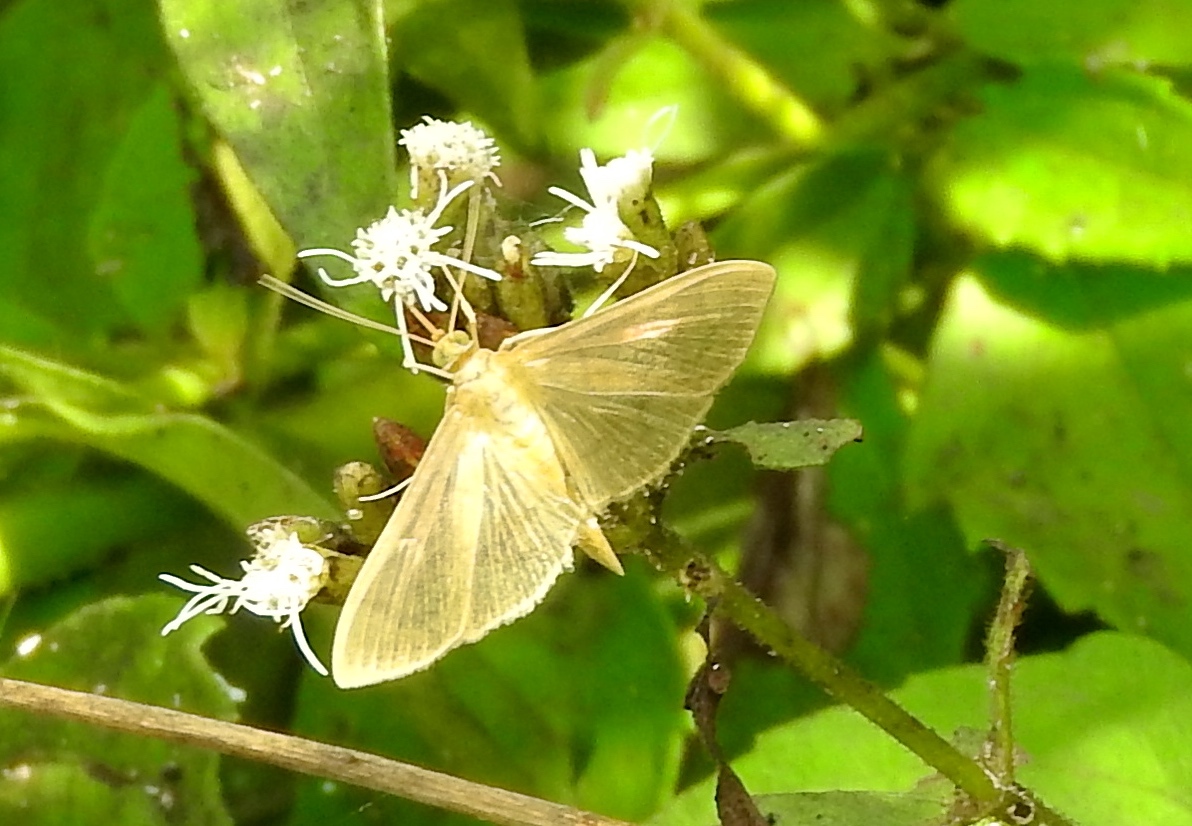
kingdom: Animalia
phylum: Arthropoda
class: Insecta
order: Lepidoptera
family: Crambidae
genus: Condylorrhiza
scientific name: Condylorrhiza vestigialis
